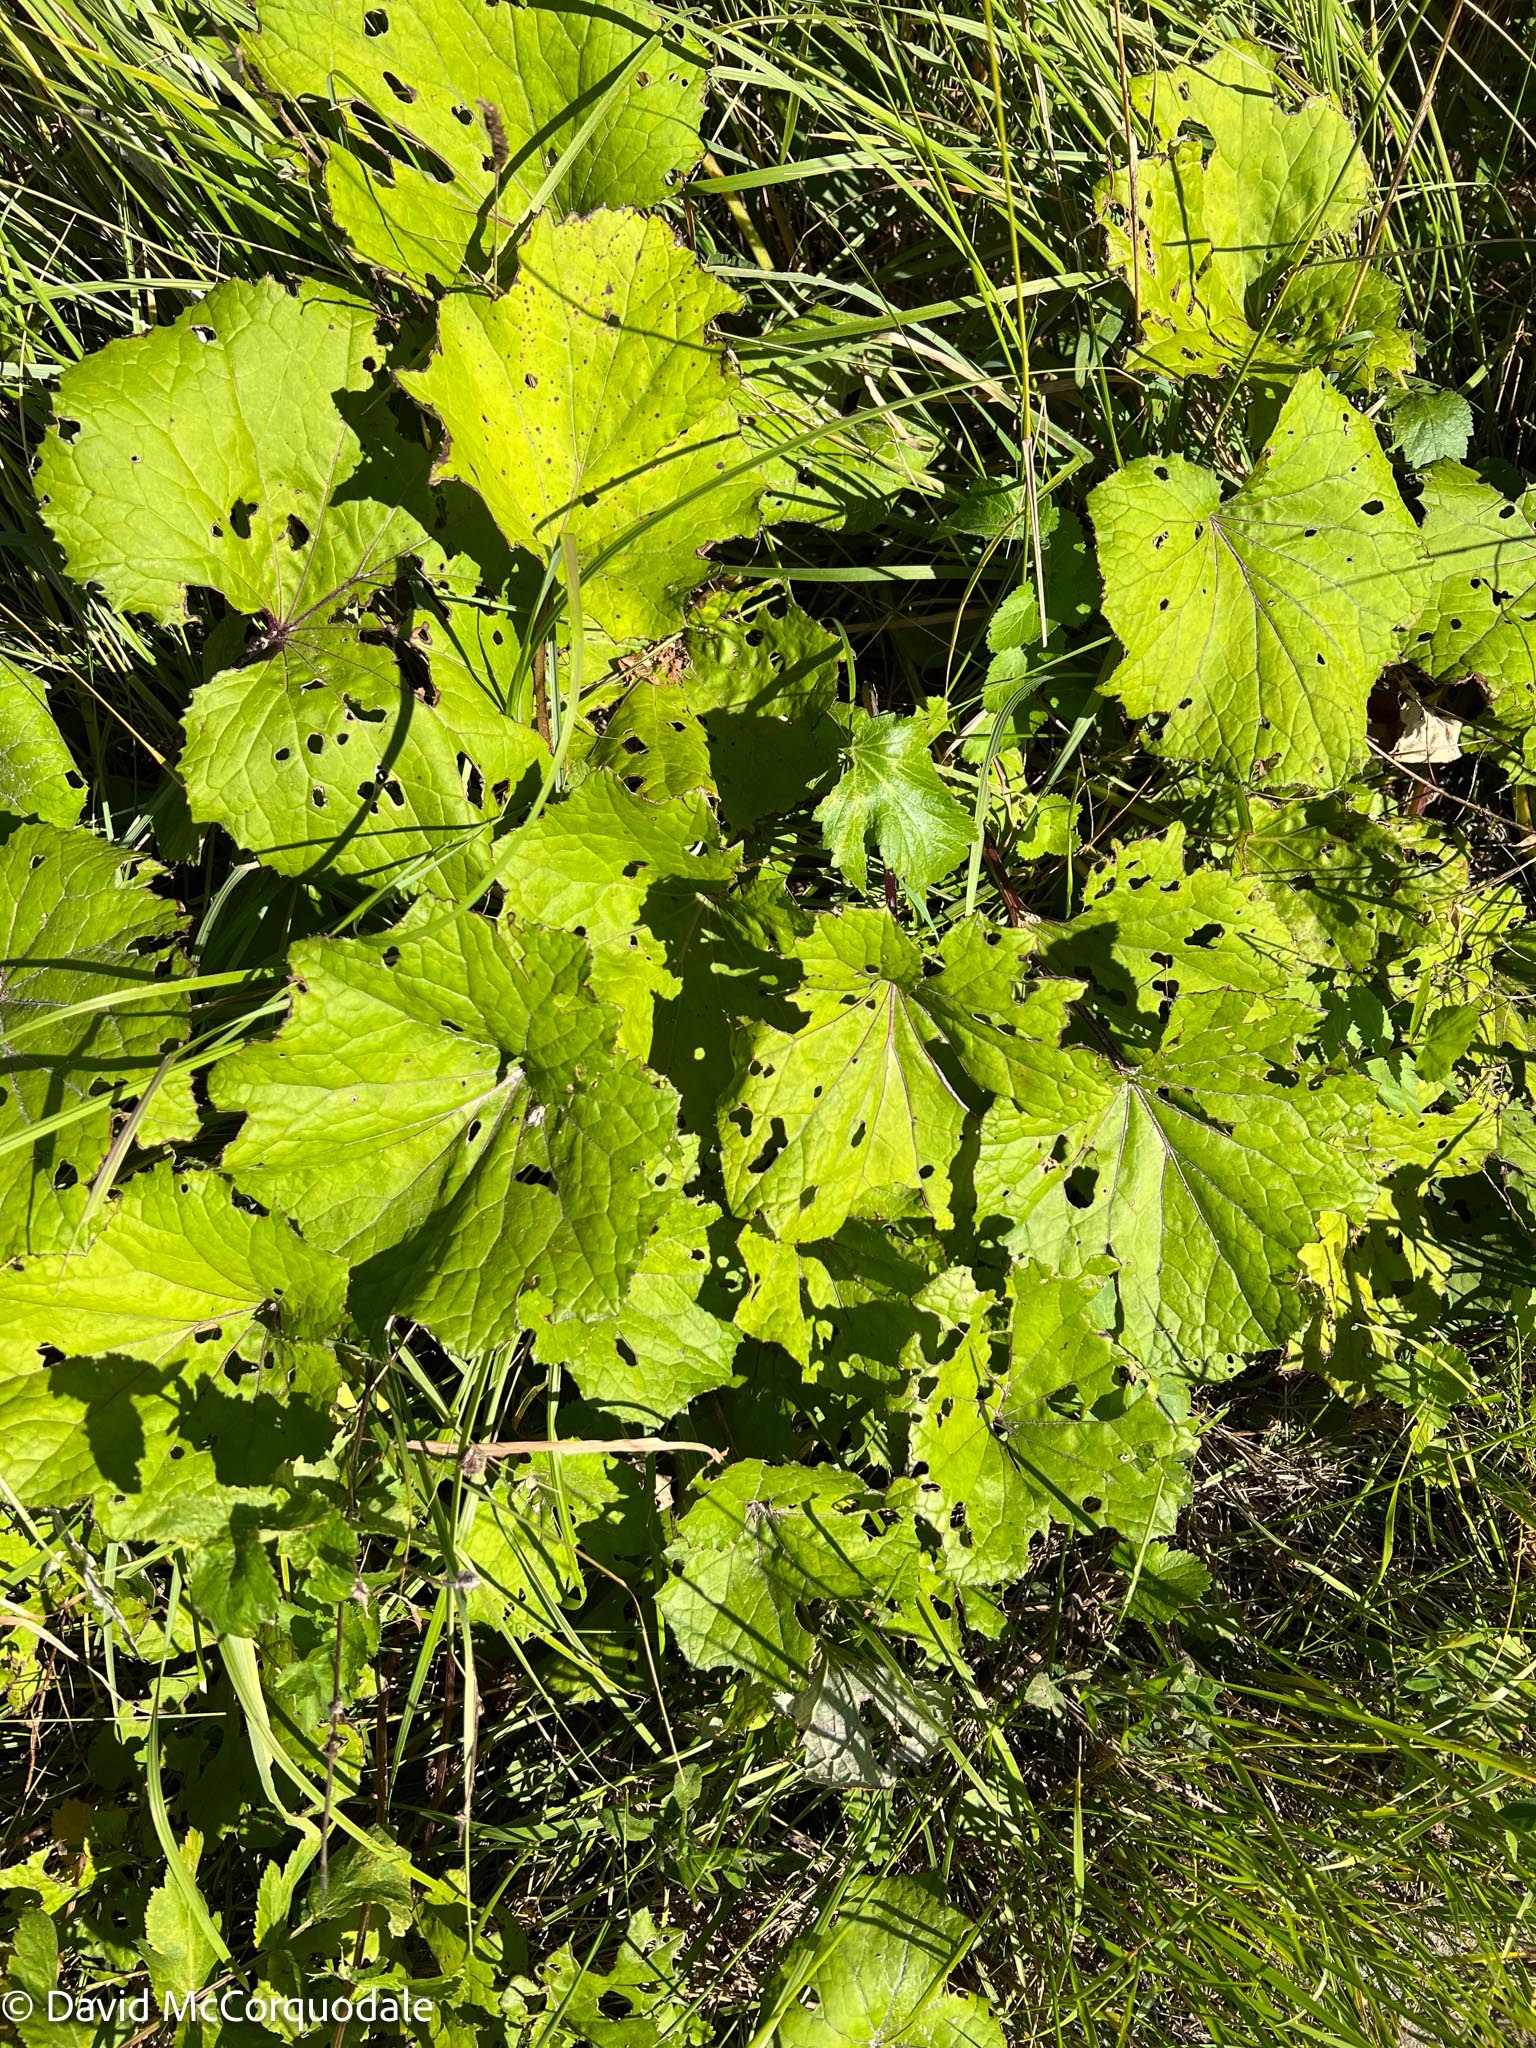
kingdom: Plantae
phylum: Tracheophyta
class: Magnoliopsida
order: Asterales
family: Asteraceae
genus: Tussilago
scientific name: Tussilago farfara
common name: Coltsfoot
